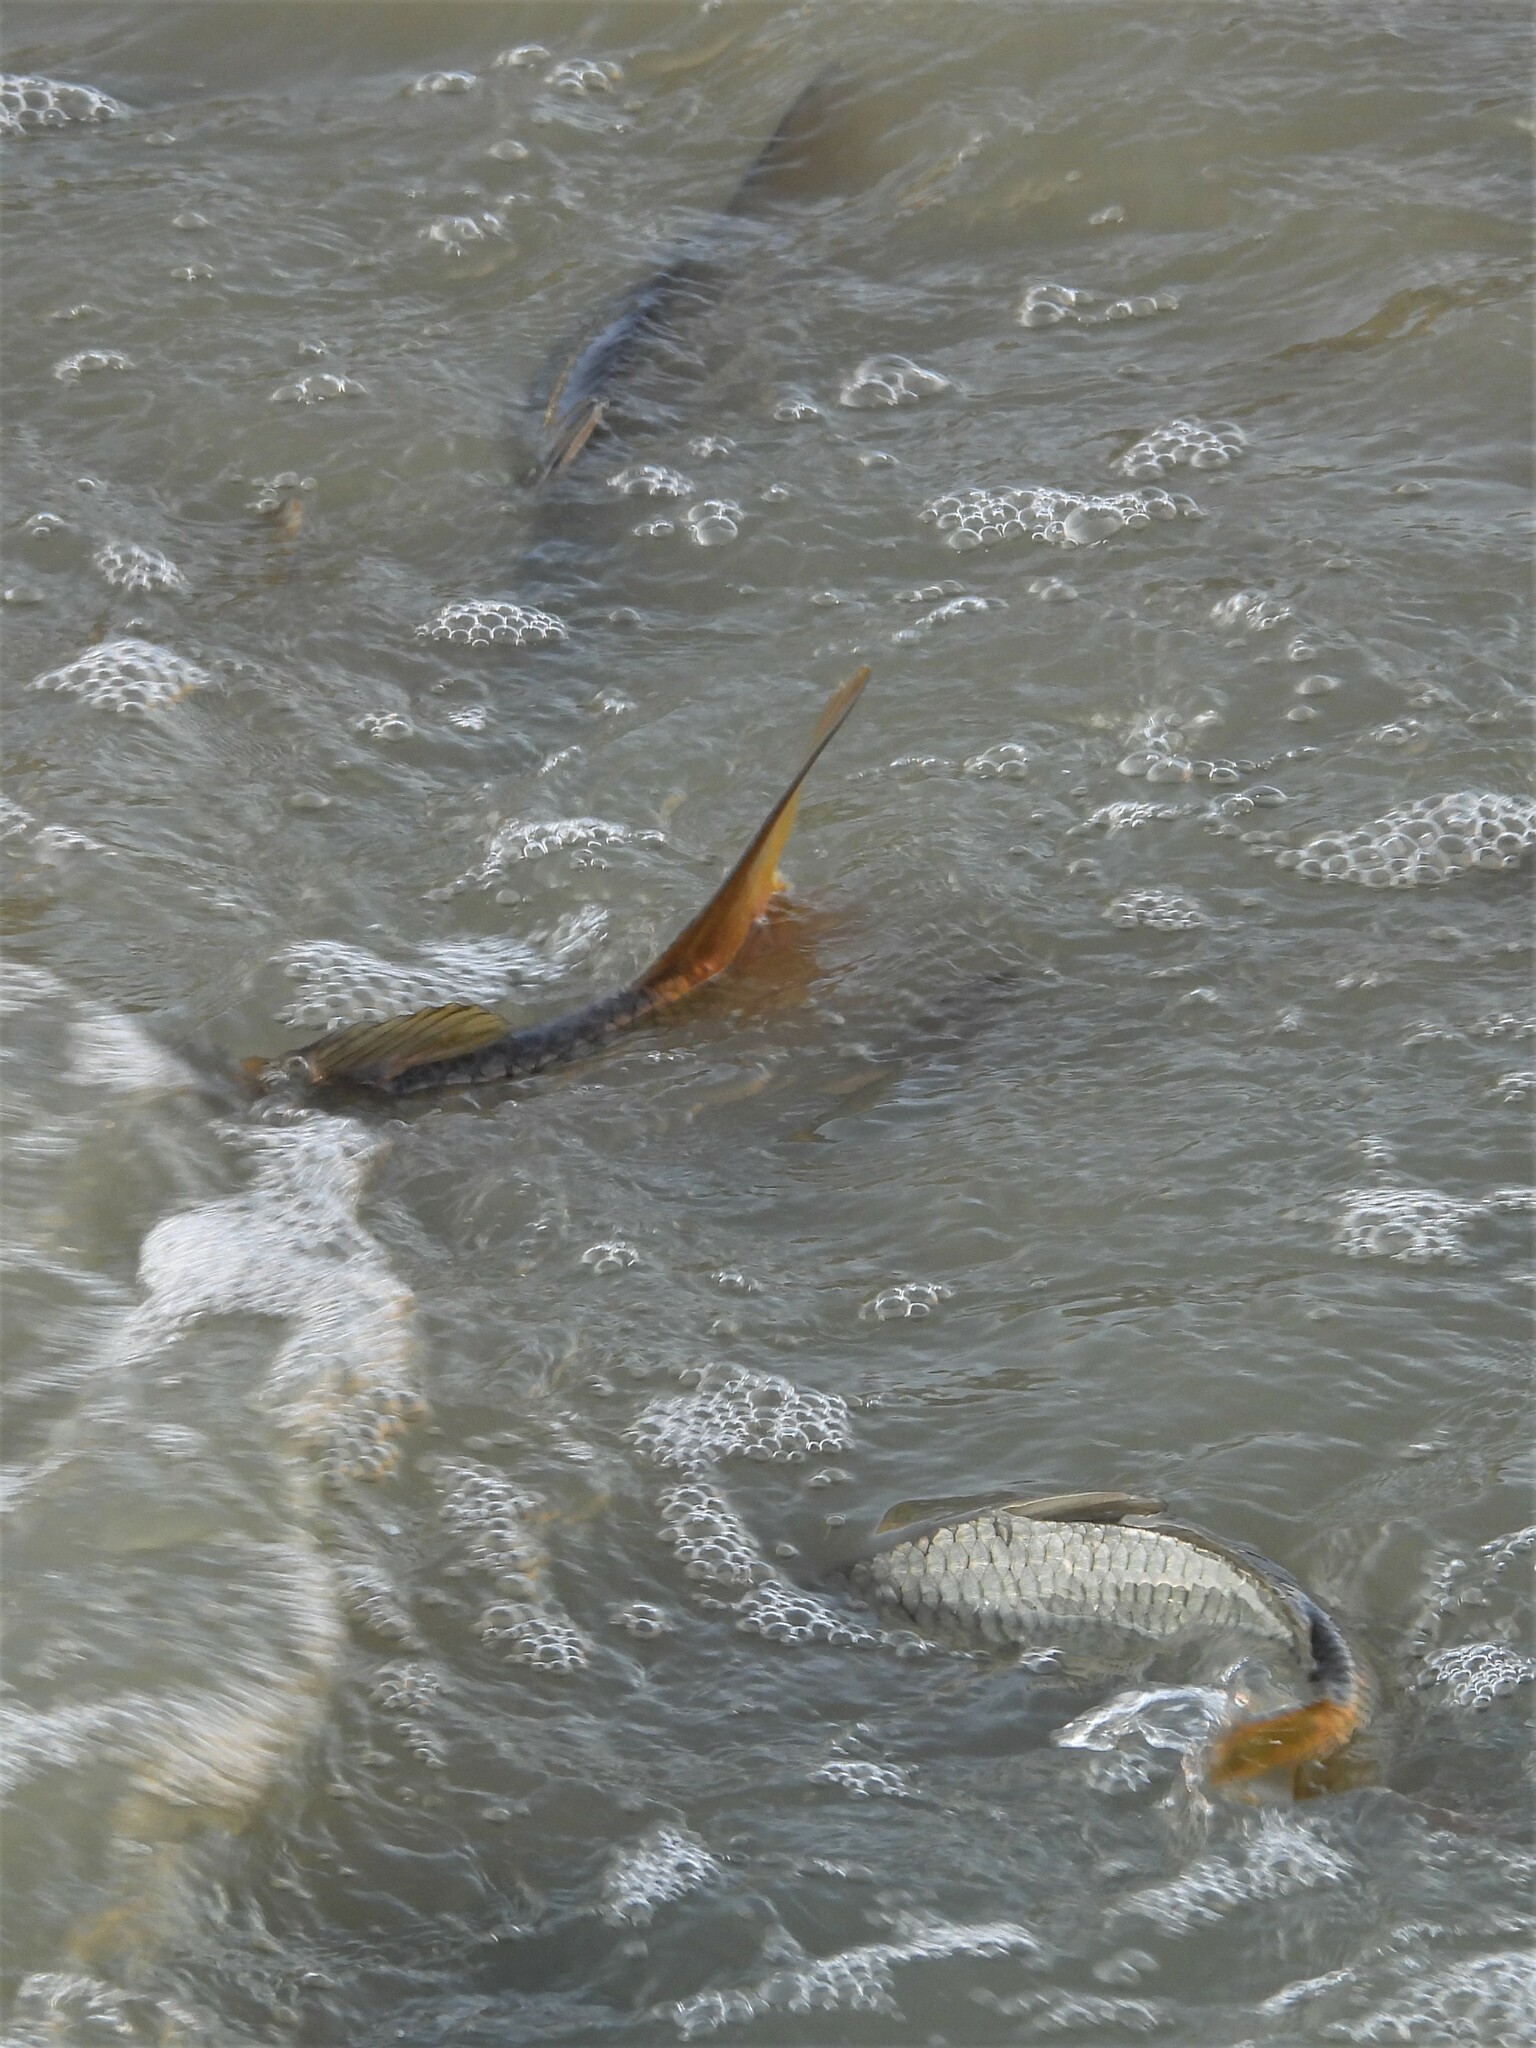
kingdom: Animalia
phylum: Chordata
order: Cypriniformes
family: Cyprinidae
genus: Cyprinus
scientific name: Cyprinus carpio
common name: Common carp
